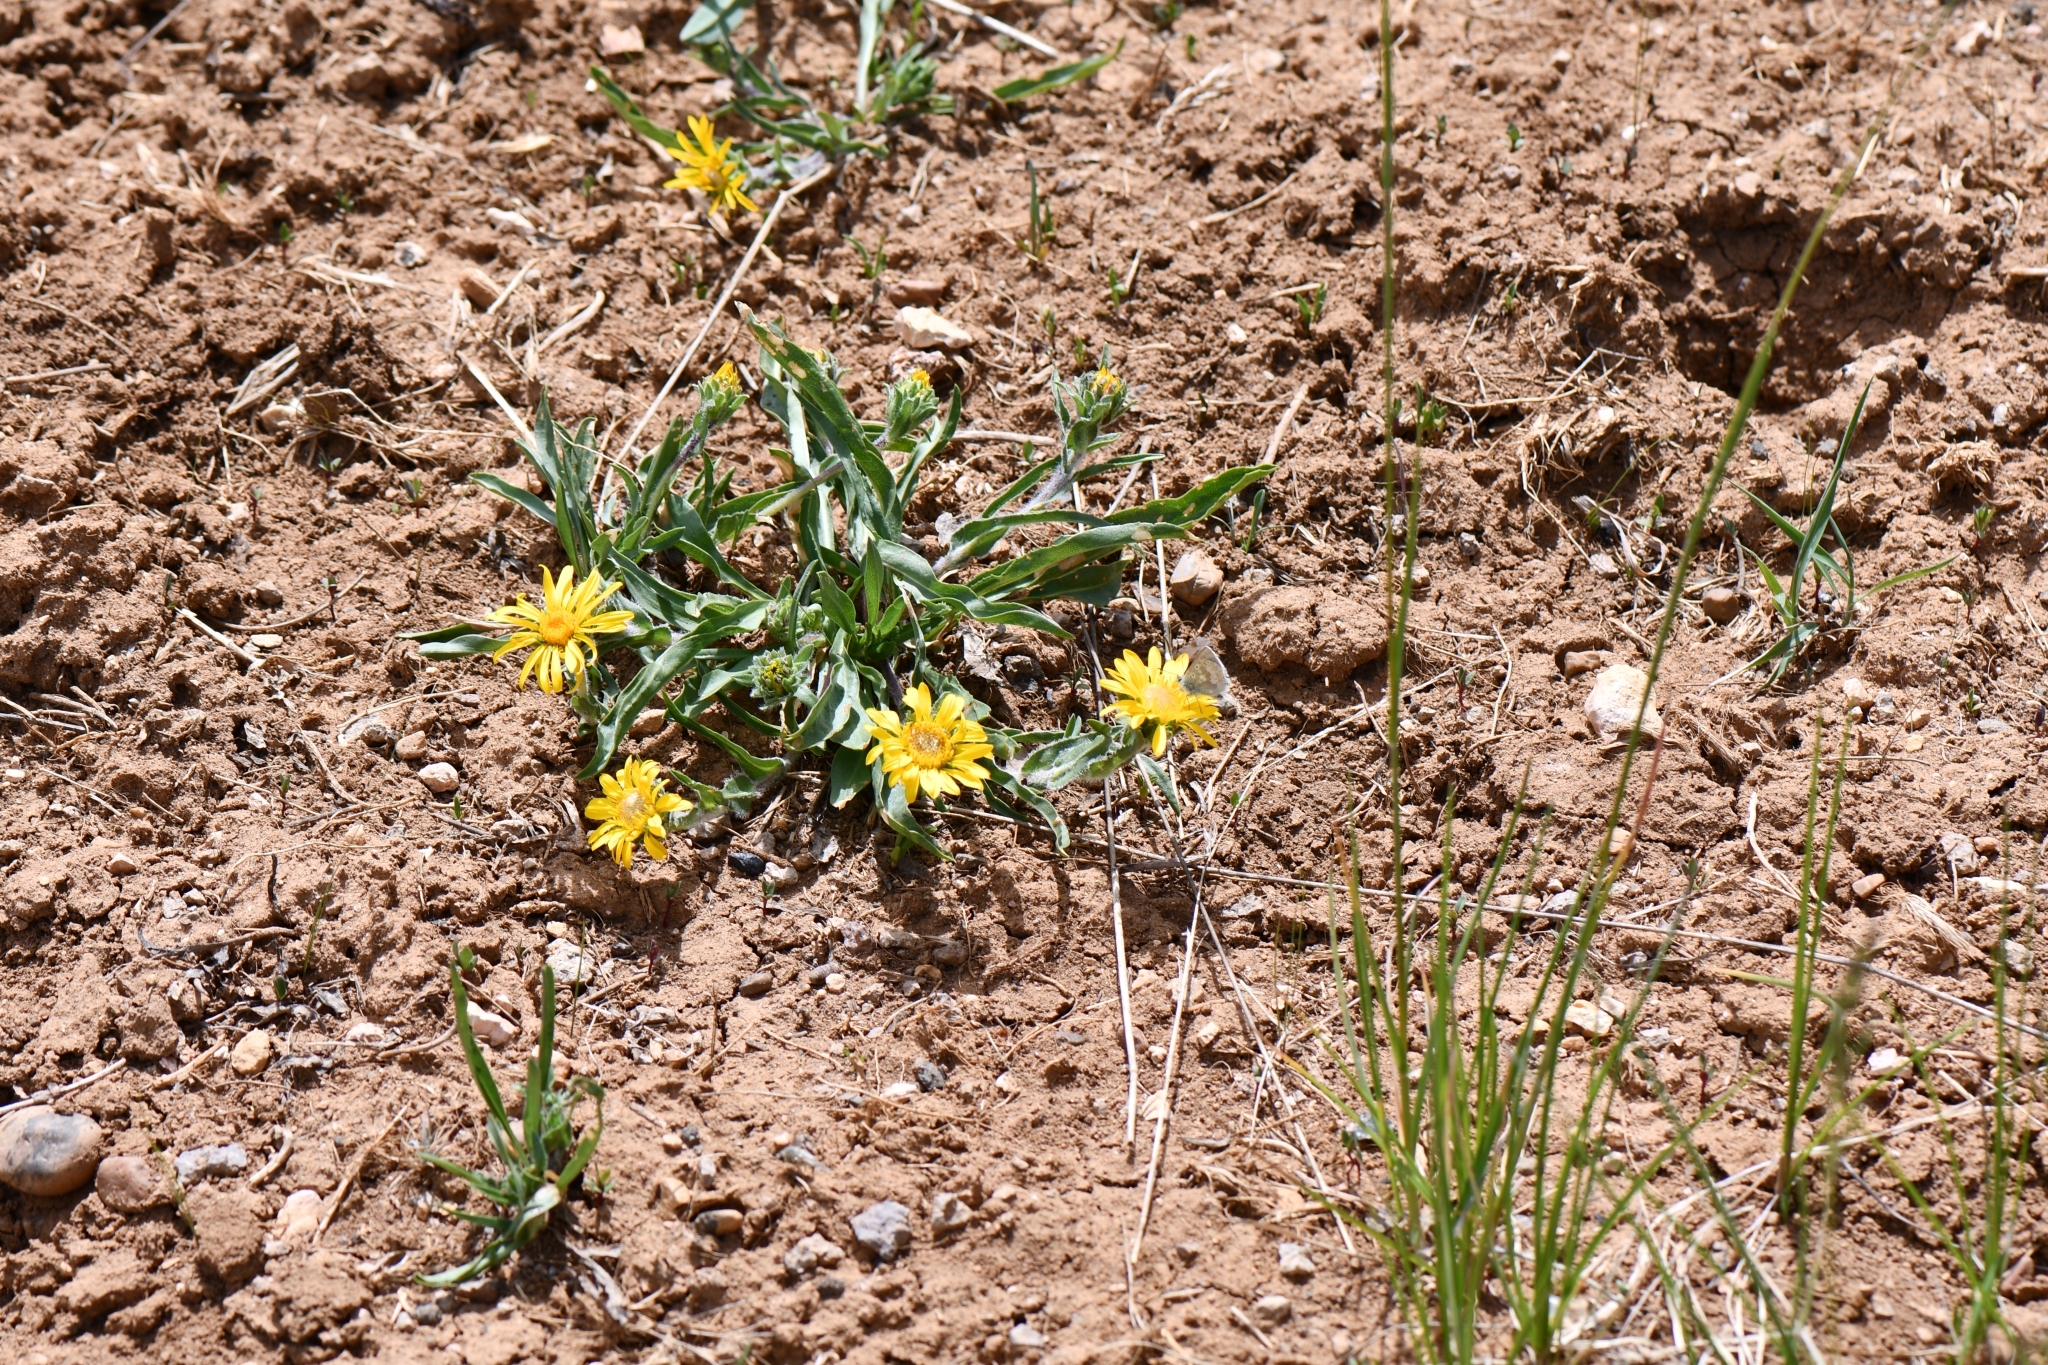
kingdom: Plantae
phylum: Tracheophyta
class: Magnoliopsida
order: Asterales
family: Asteraceae
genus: Pyrrocoma
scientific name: Pyrrocoma clementis
